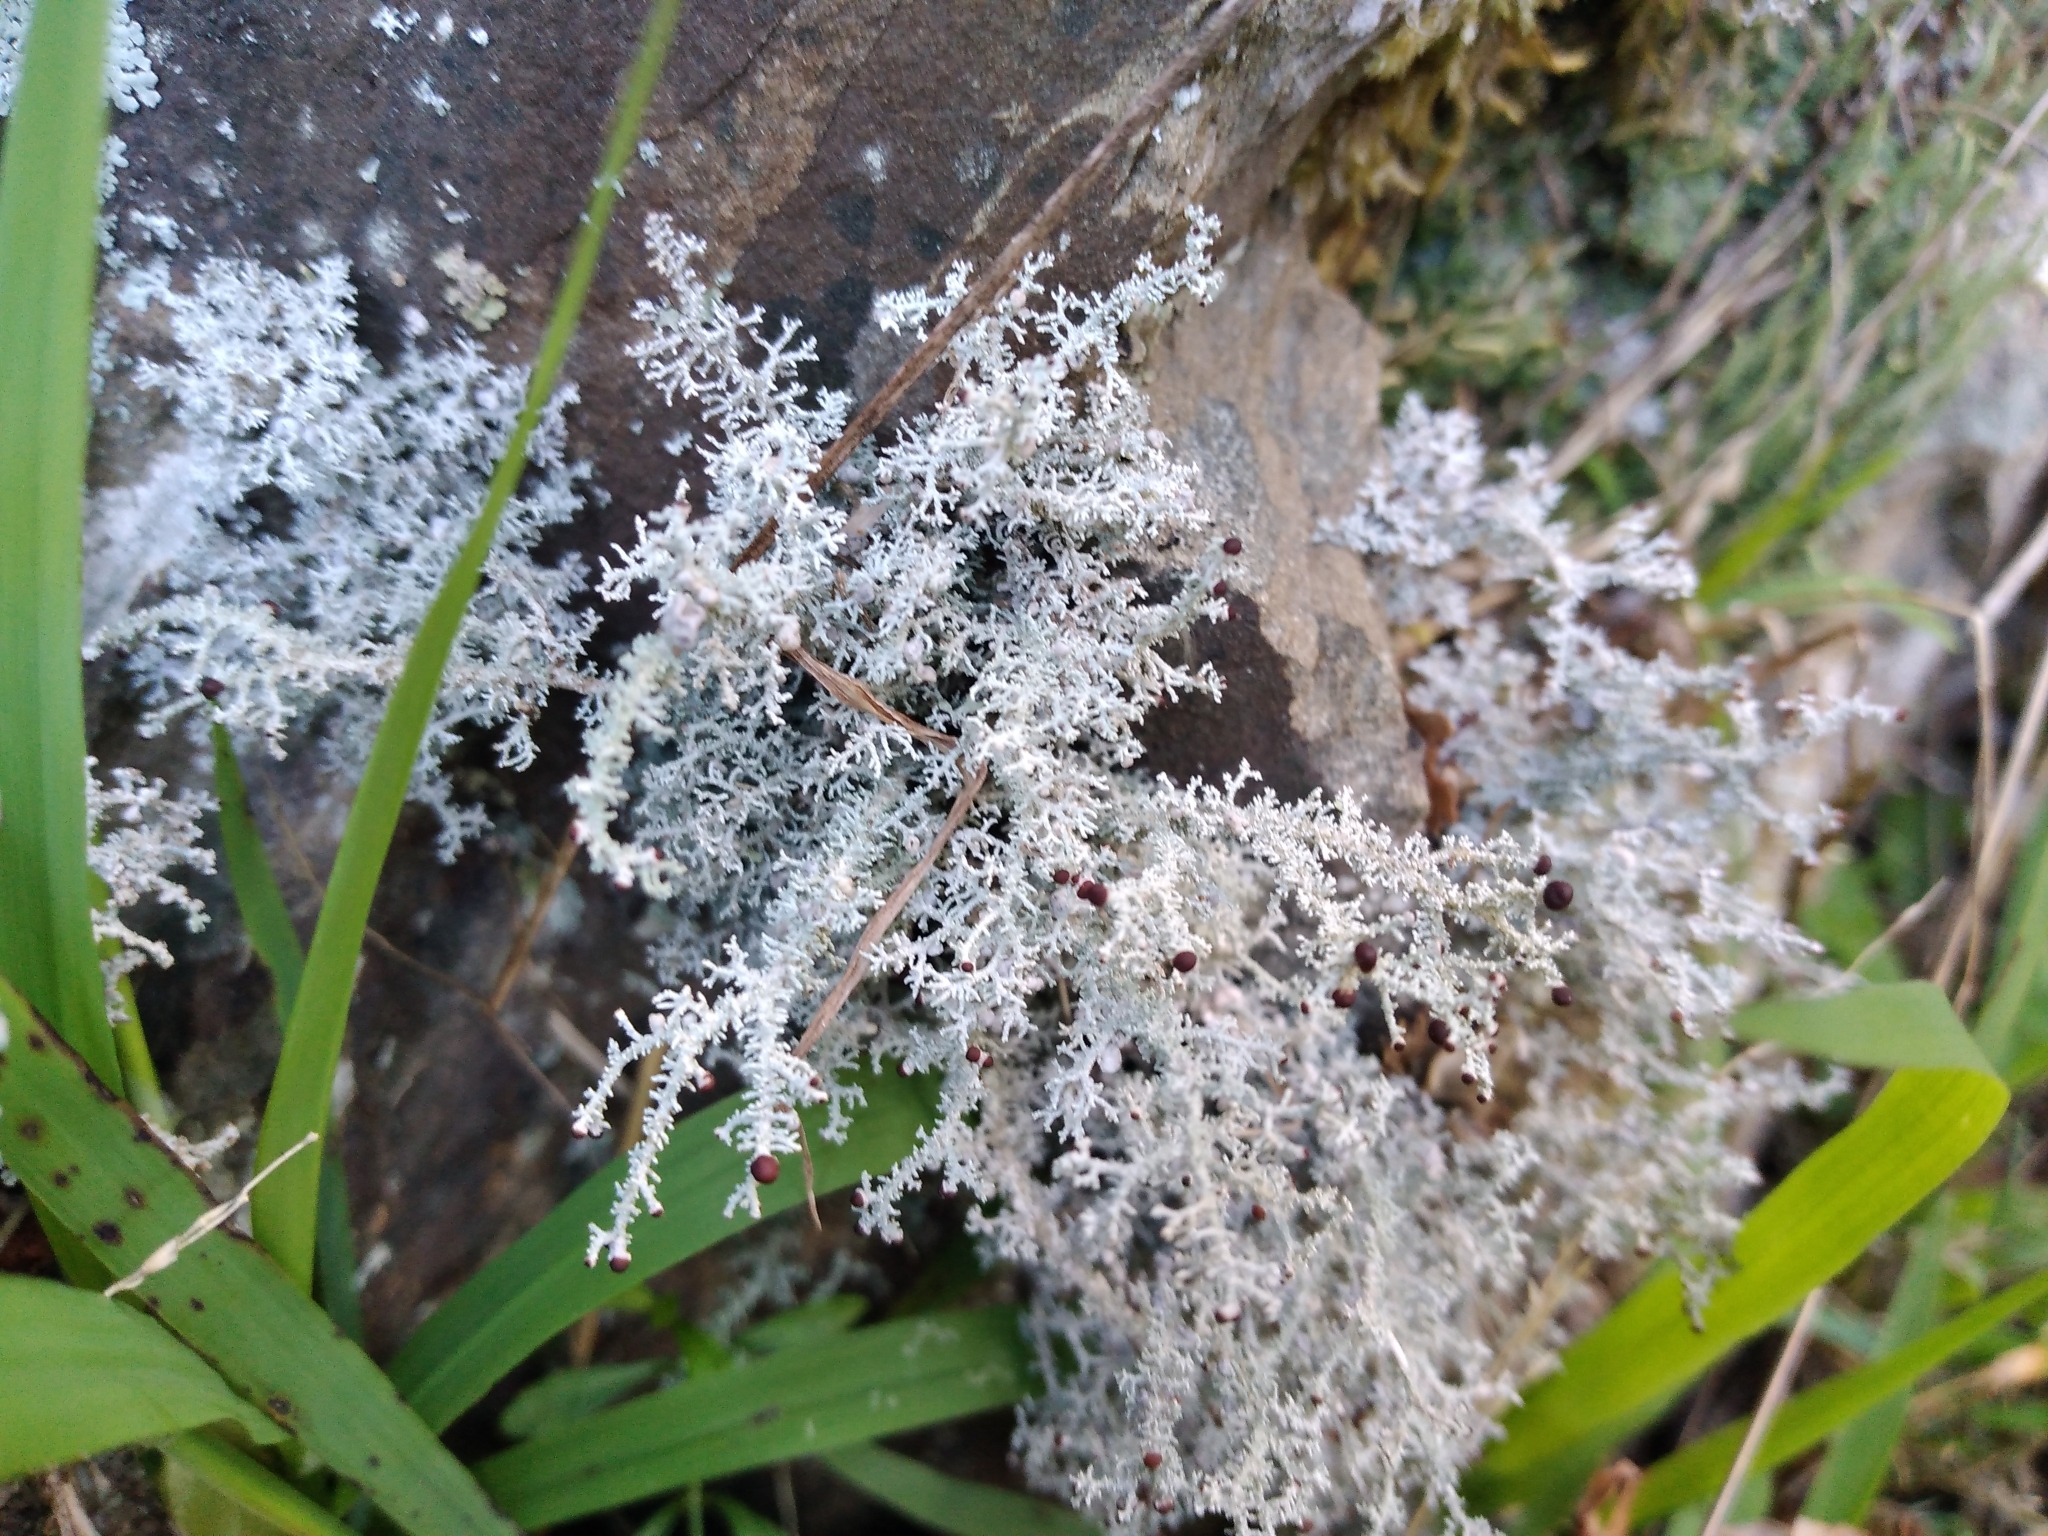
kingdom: Fungi
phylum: Ascomycota
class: Lecanoromycetes
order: Lecanorales
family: Stereocaulaceae
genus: Stereocaulon
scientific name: Stereocaulon ramulosum
